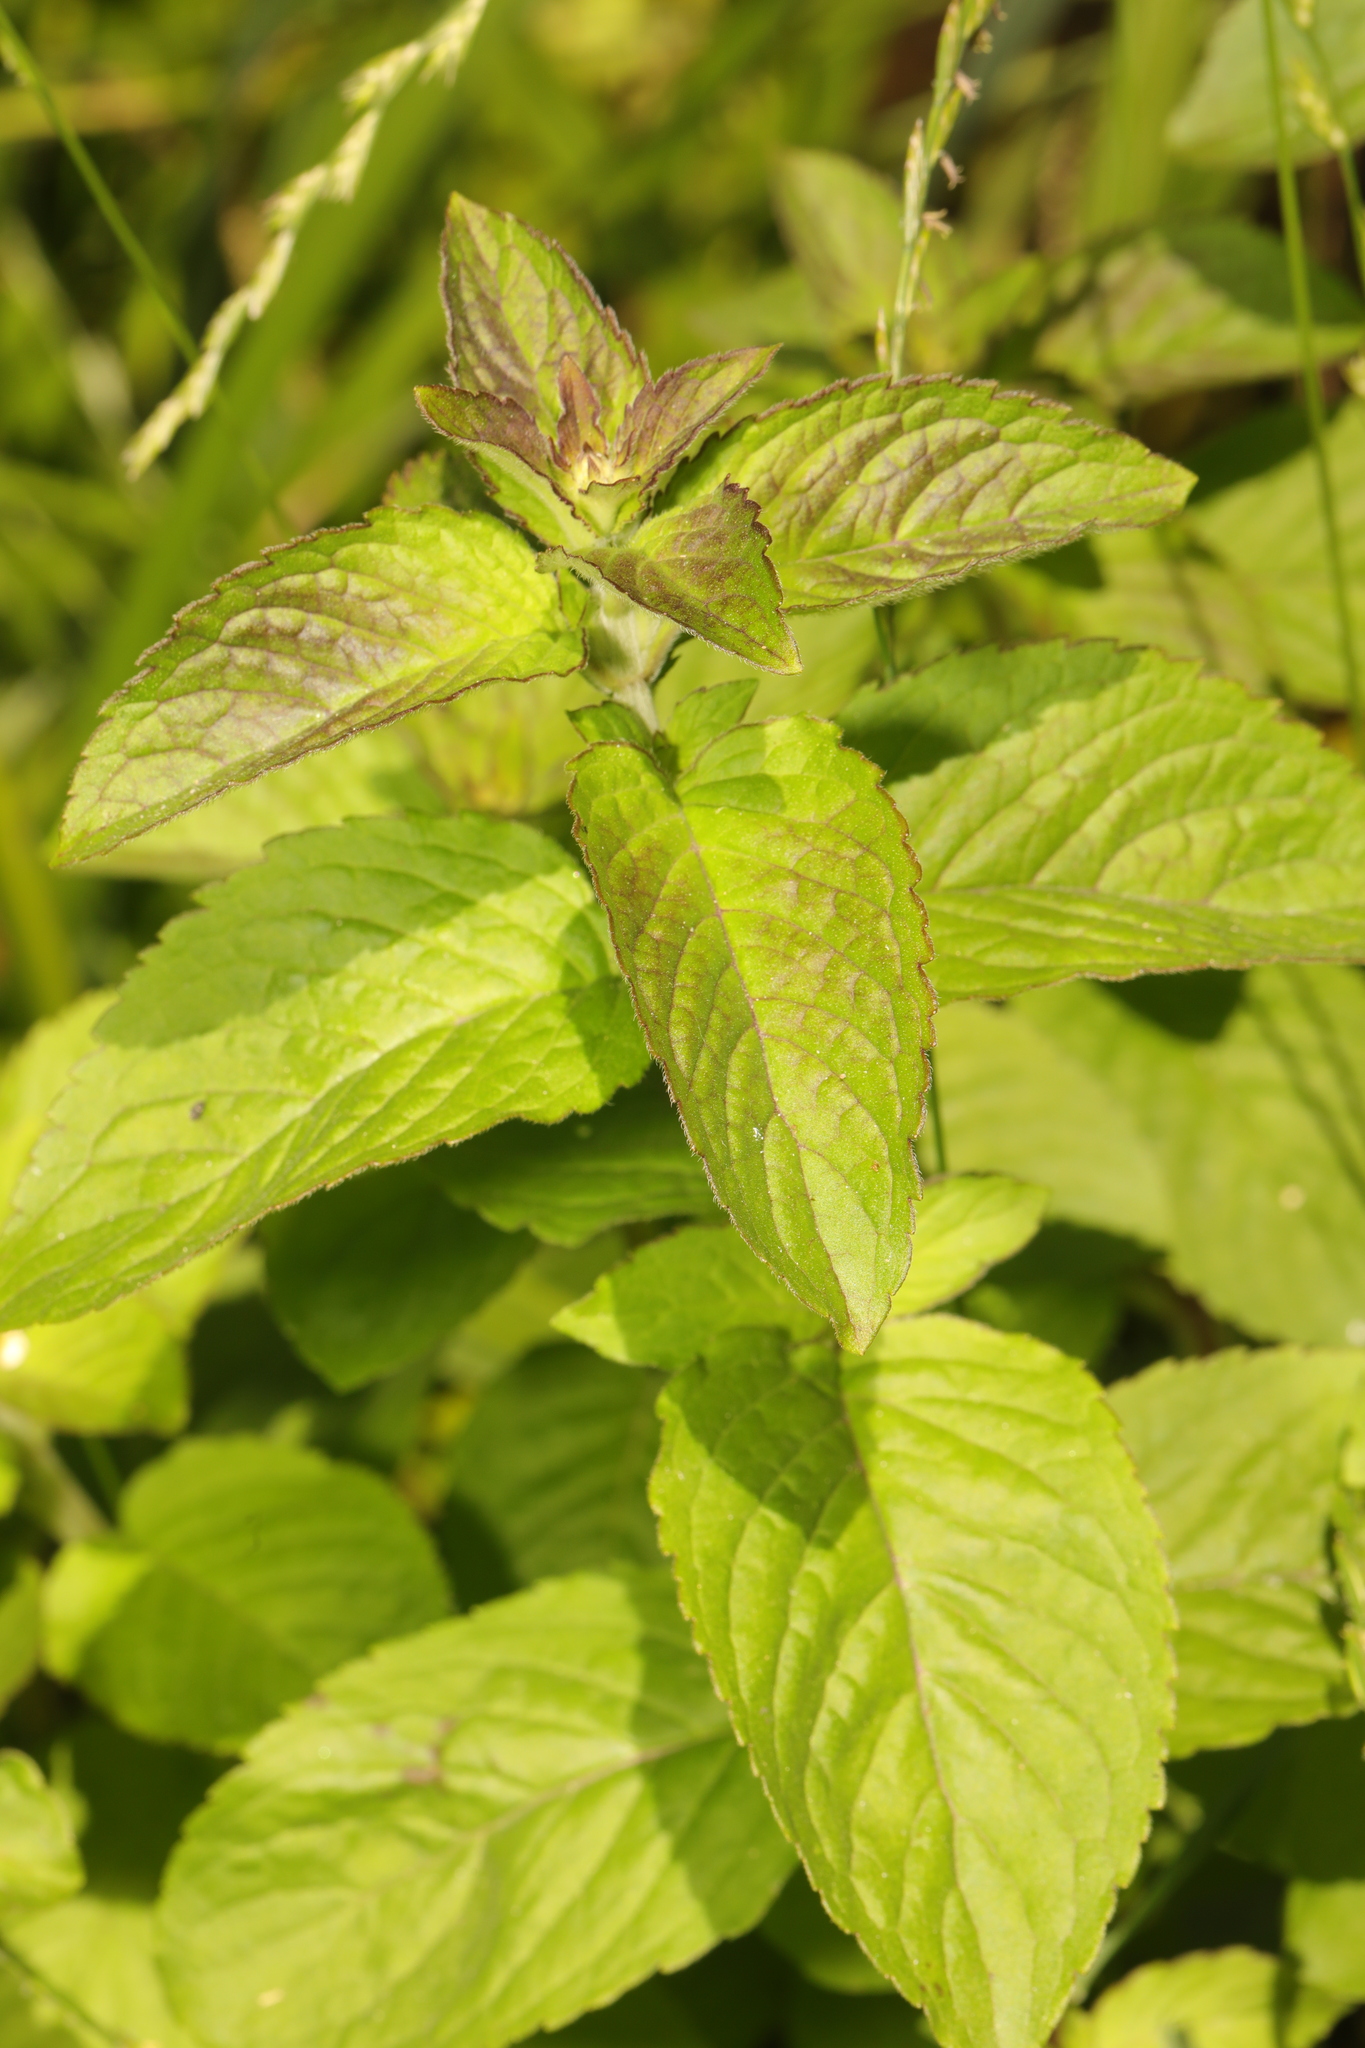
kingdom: Plantae
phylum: Tracheophyta
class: Magnoliopsida
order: Lamiales
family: Lamiaceae
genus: Mentha
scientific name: Mentha aquatica
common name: Water mint
